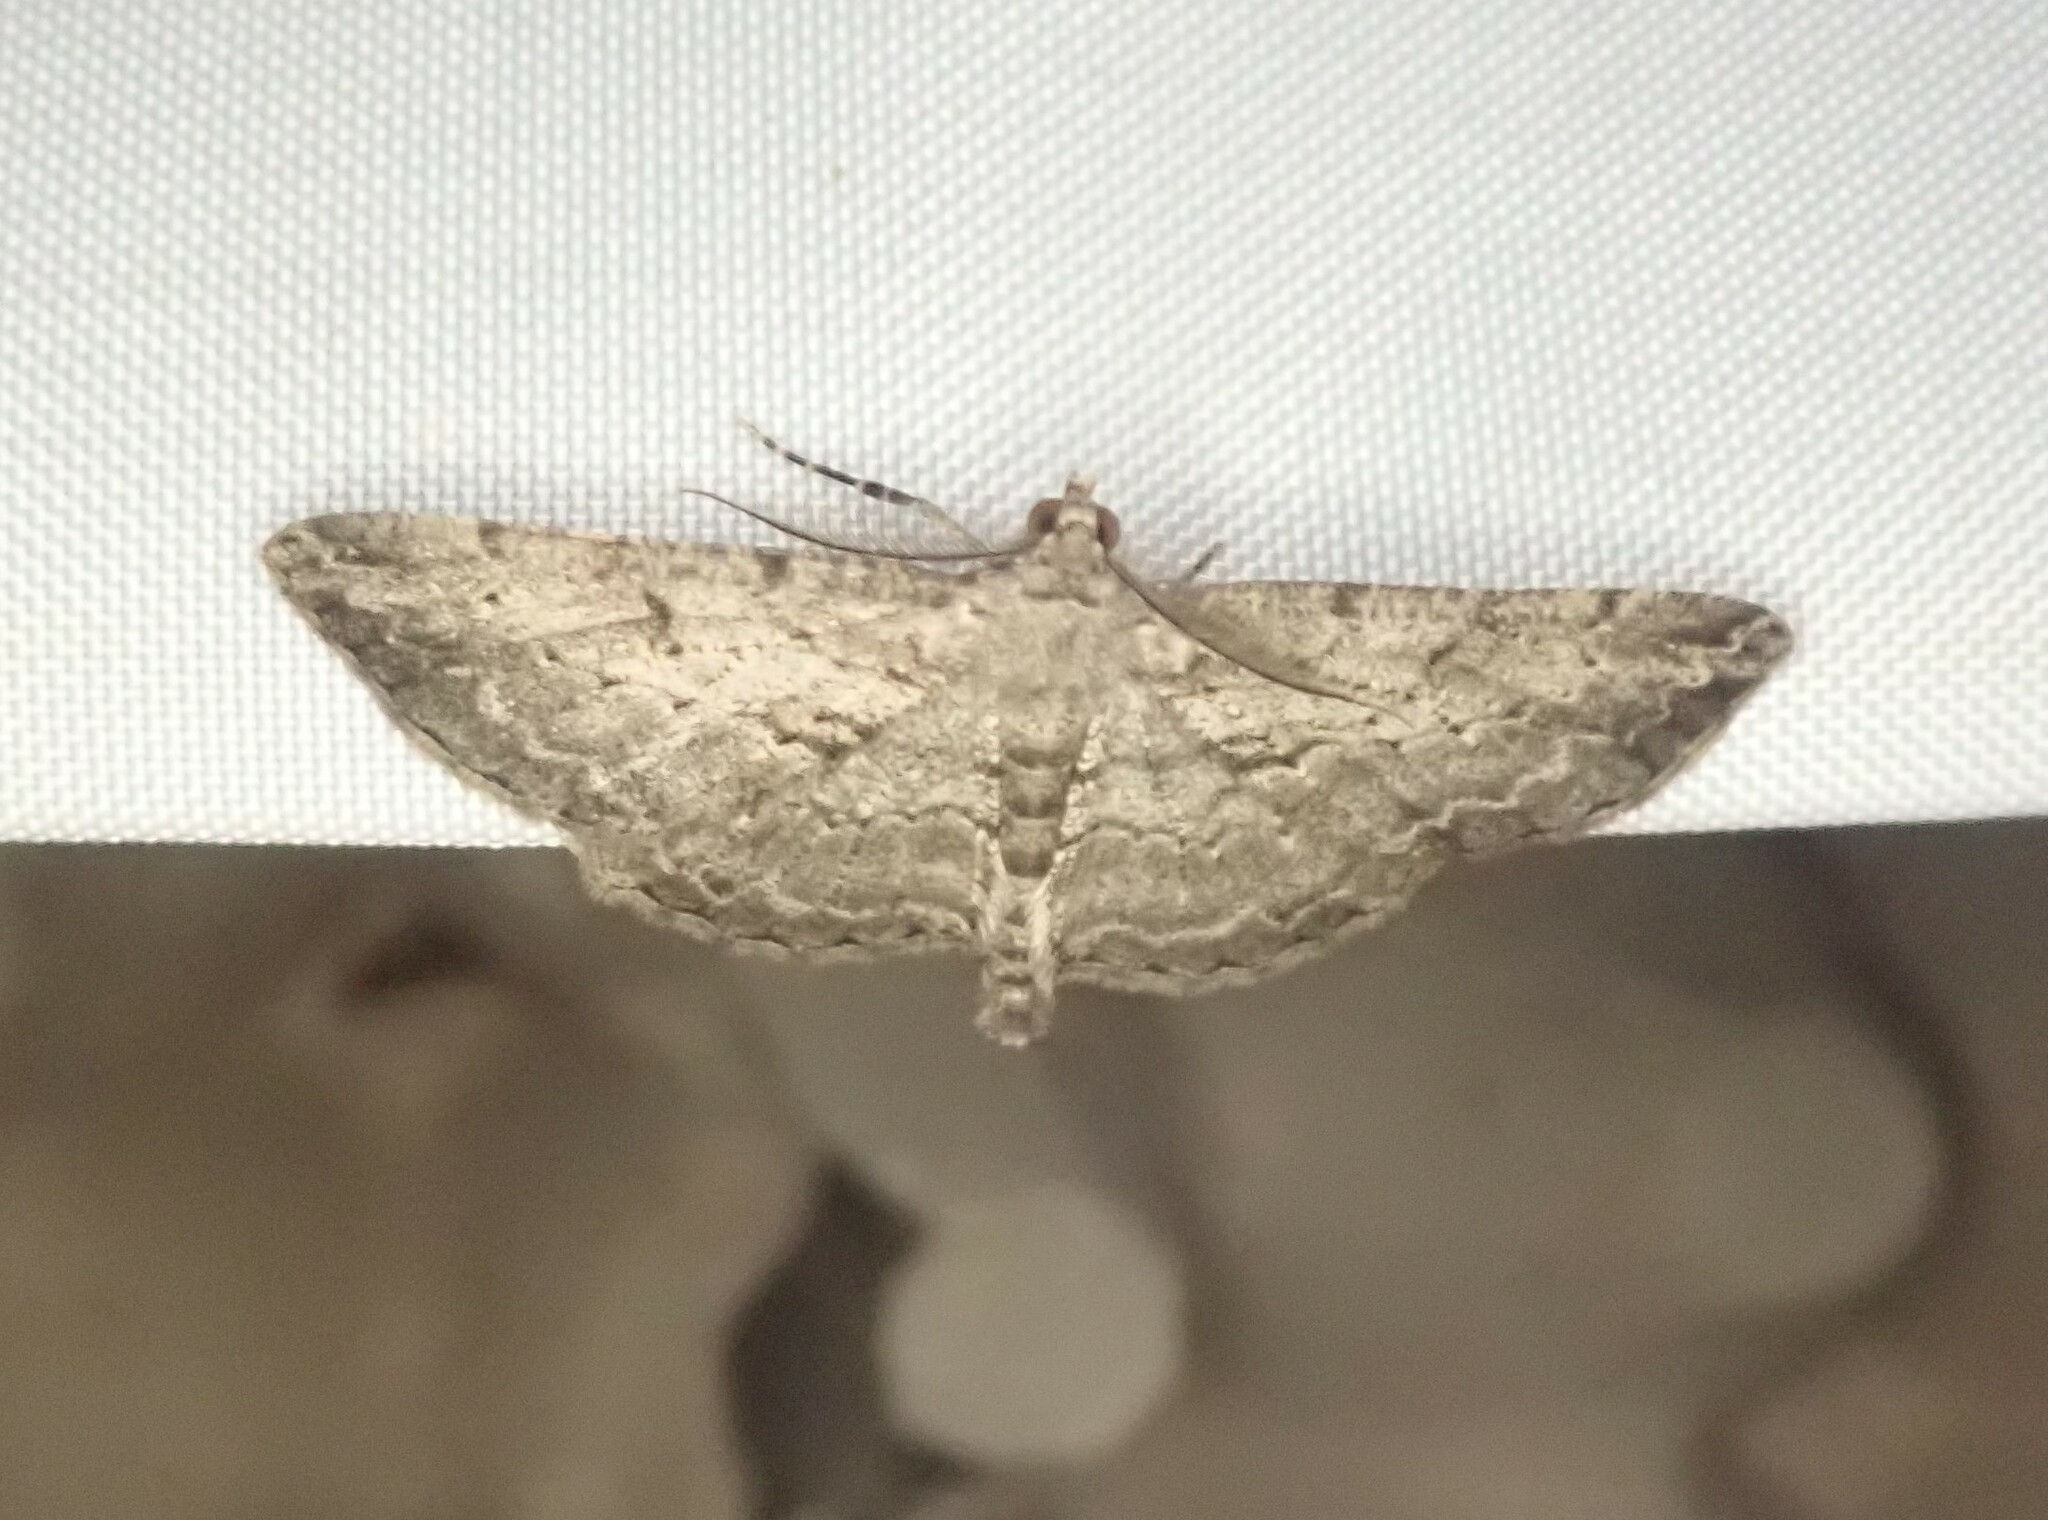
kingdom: Animalia
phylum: Arthropoda
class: Insecta
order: Lepidoptera
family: Geometridae
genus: Peribatodes
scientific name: Peribatodes rhomboidaria
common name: Willow beauty
